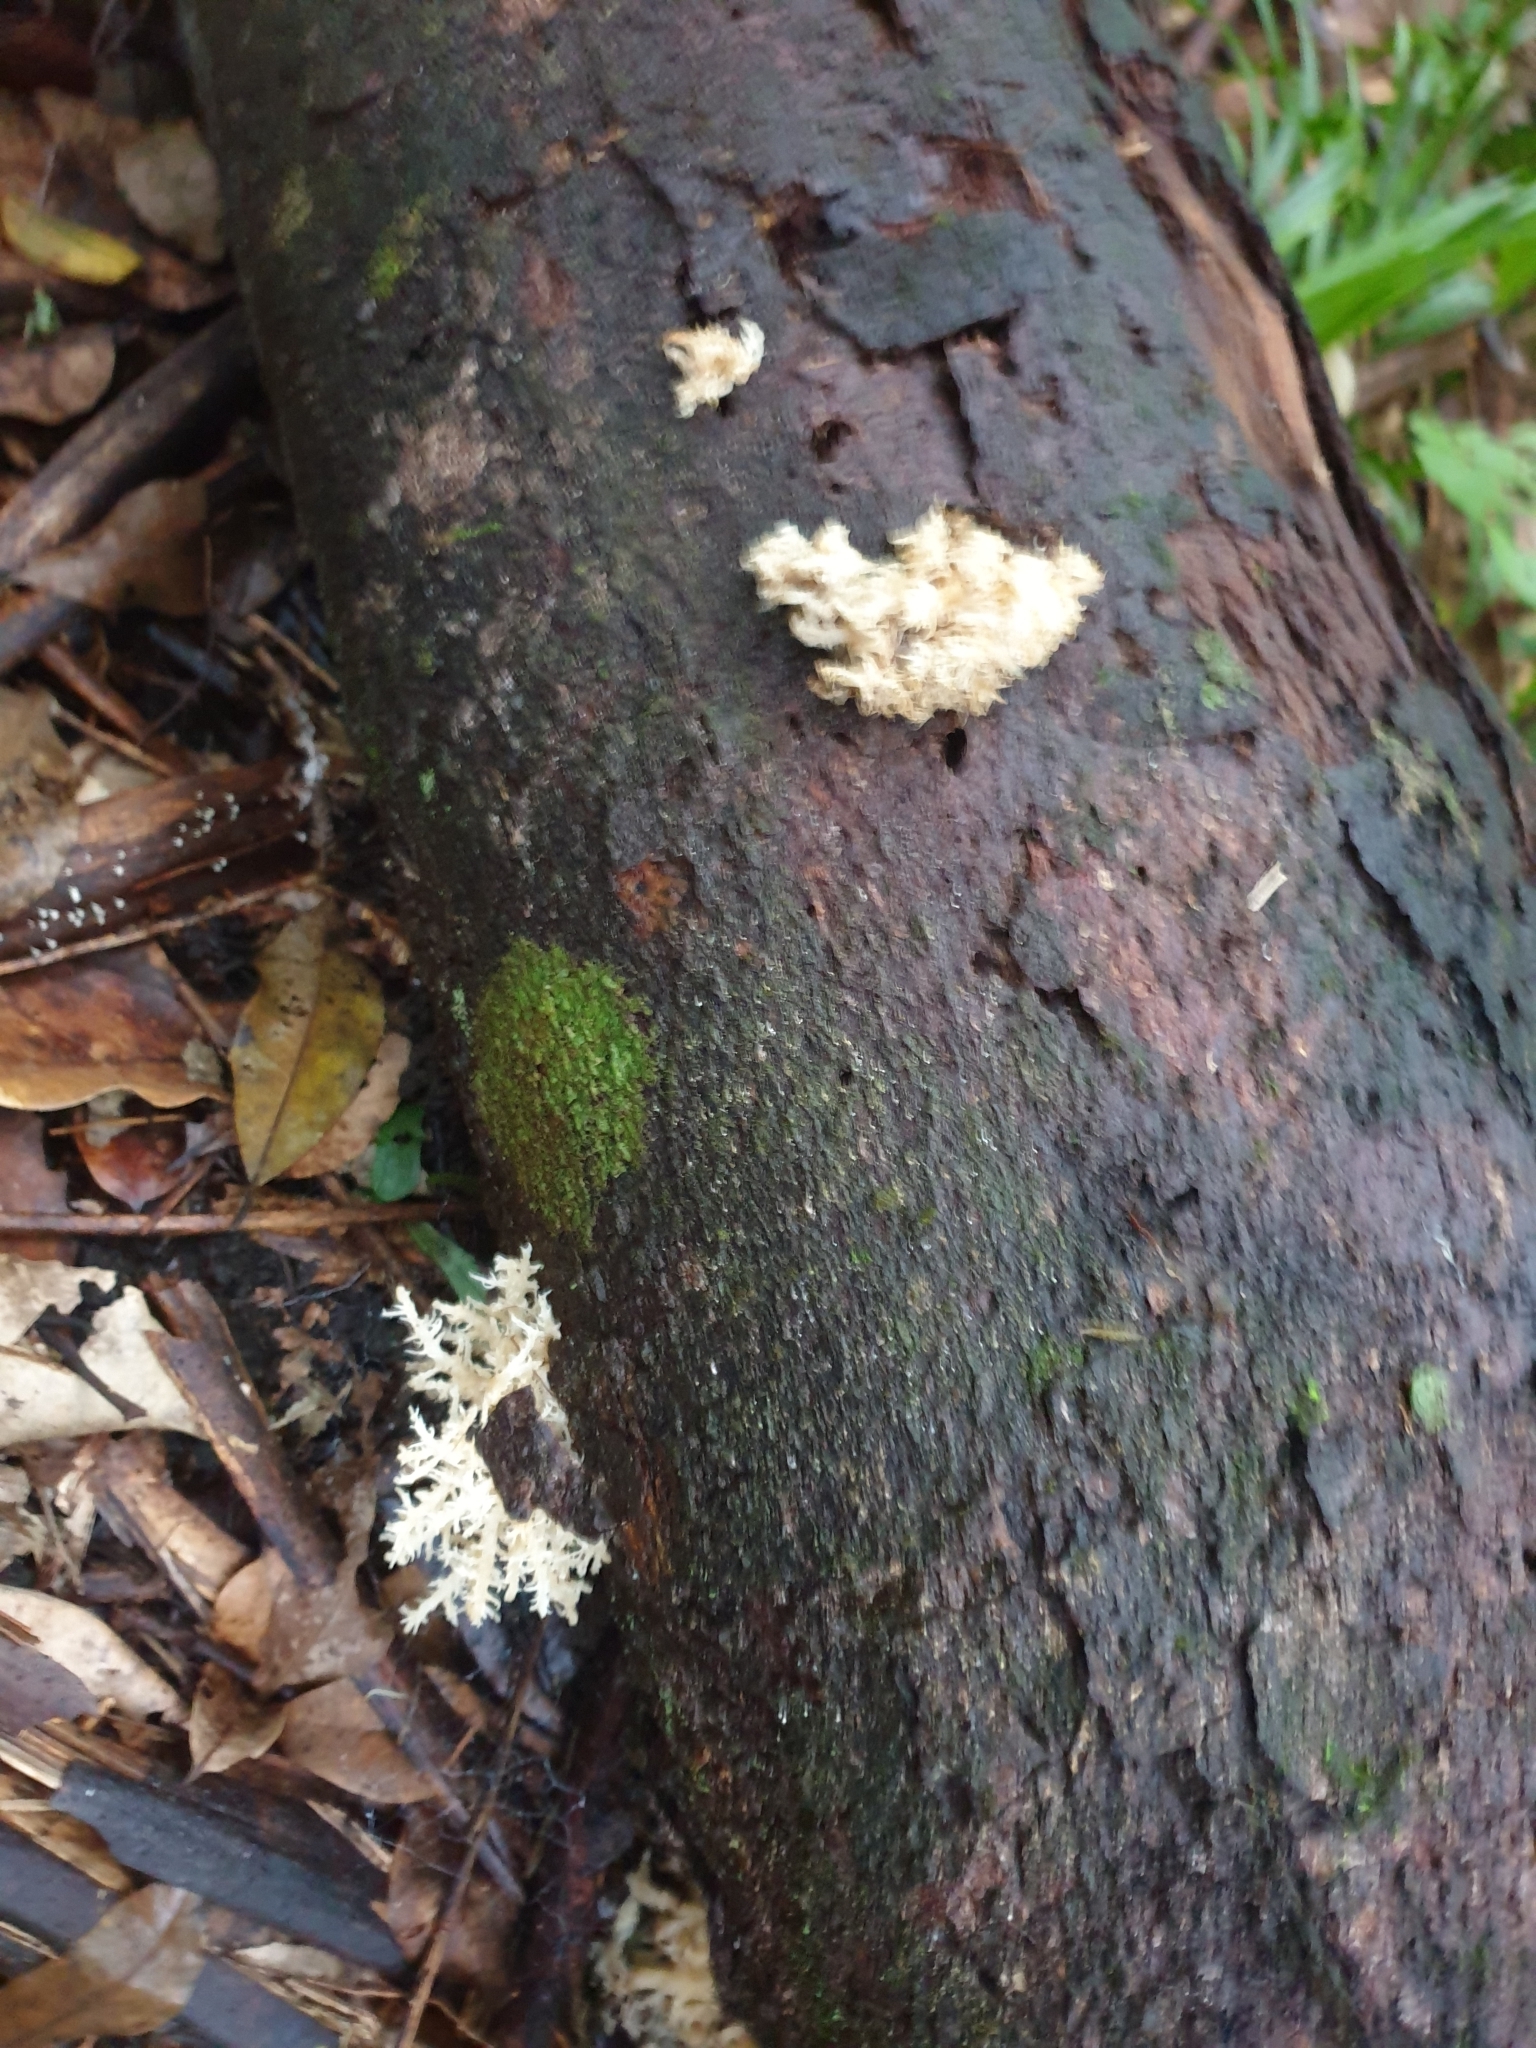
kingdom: Fungi
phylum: Basidiomycota
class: Agaricomycetes
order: Russulales
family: Hericiaceae
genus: Hericium
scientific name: Hericium novae-zealandiae
